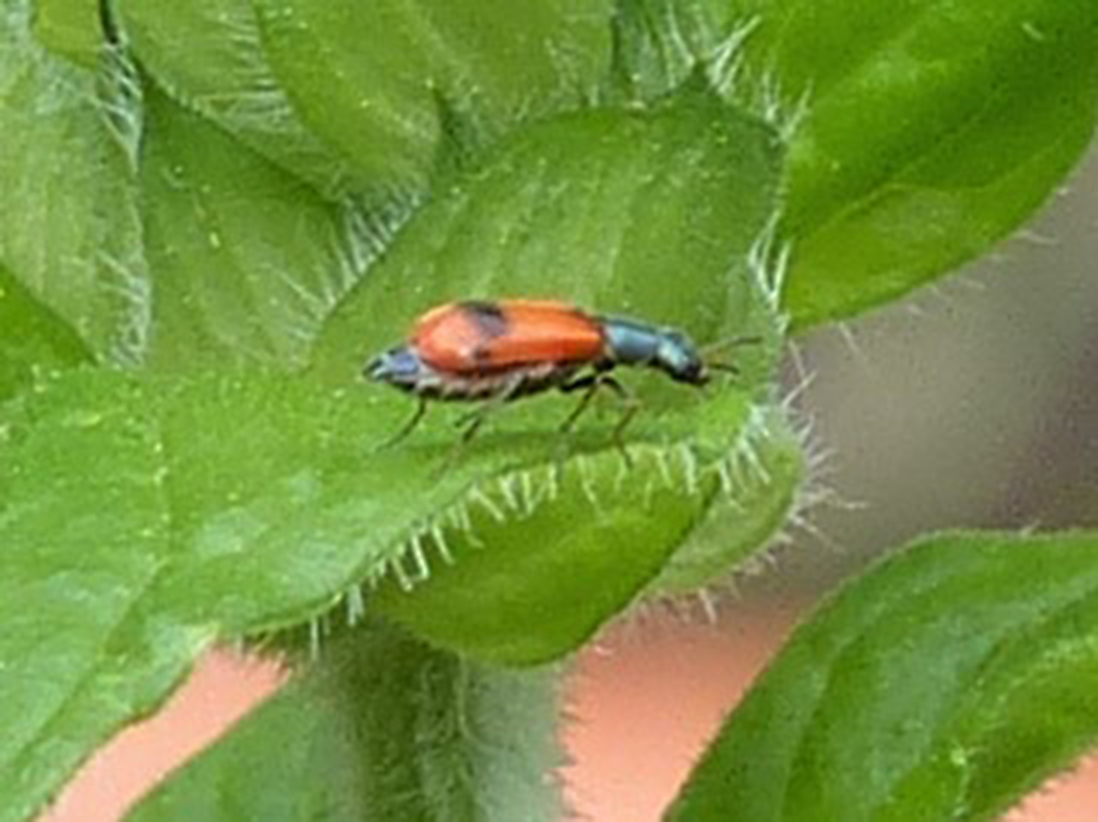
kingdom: Animalia
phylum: Arthropoda
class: Insecta
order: Coleoptera
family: Melyridae
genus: Anthocomus
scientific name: Anthocomus equestris
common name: Black-banded soft-winged flower beetle
